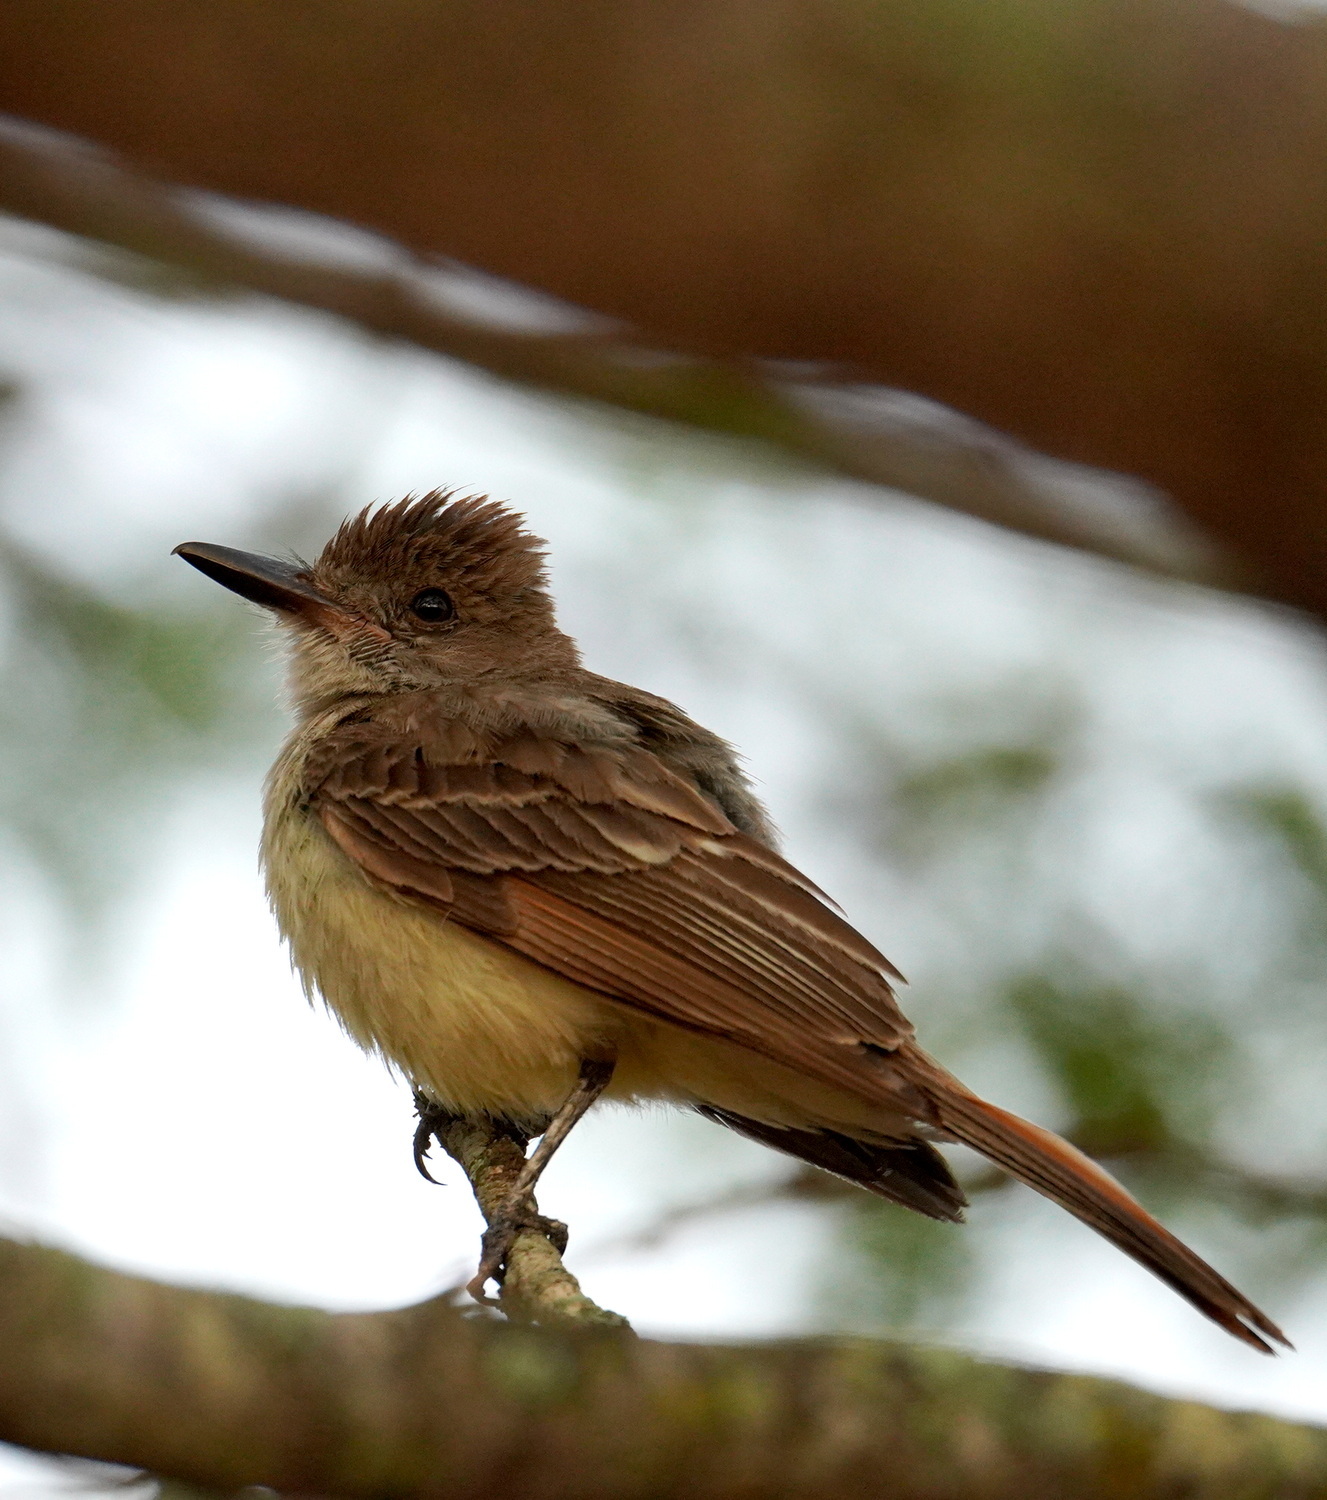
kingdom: Animalia
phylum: Chordata
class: Aves
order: Passeriformes
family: Tyrannidae
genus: Myiarchus
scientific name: Myiarchus tyrannulus
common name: Brown-crested flycatcher
